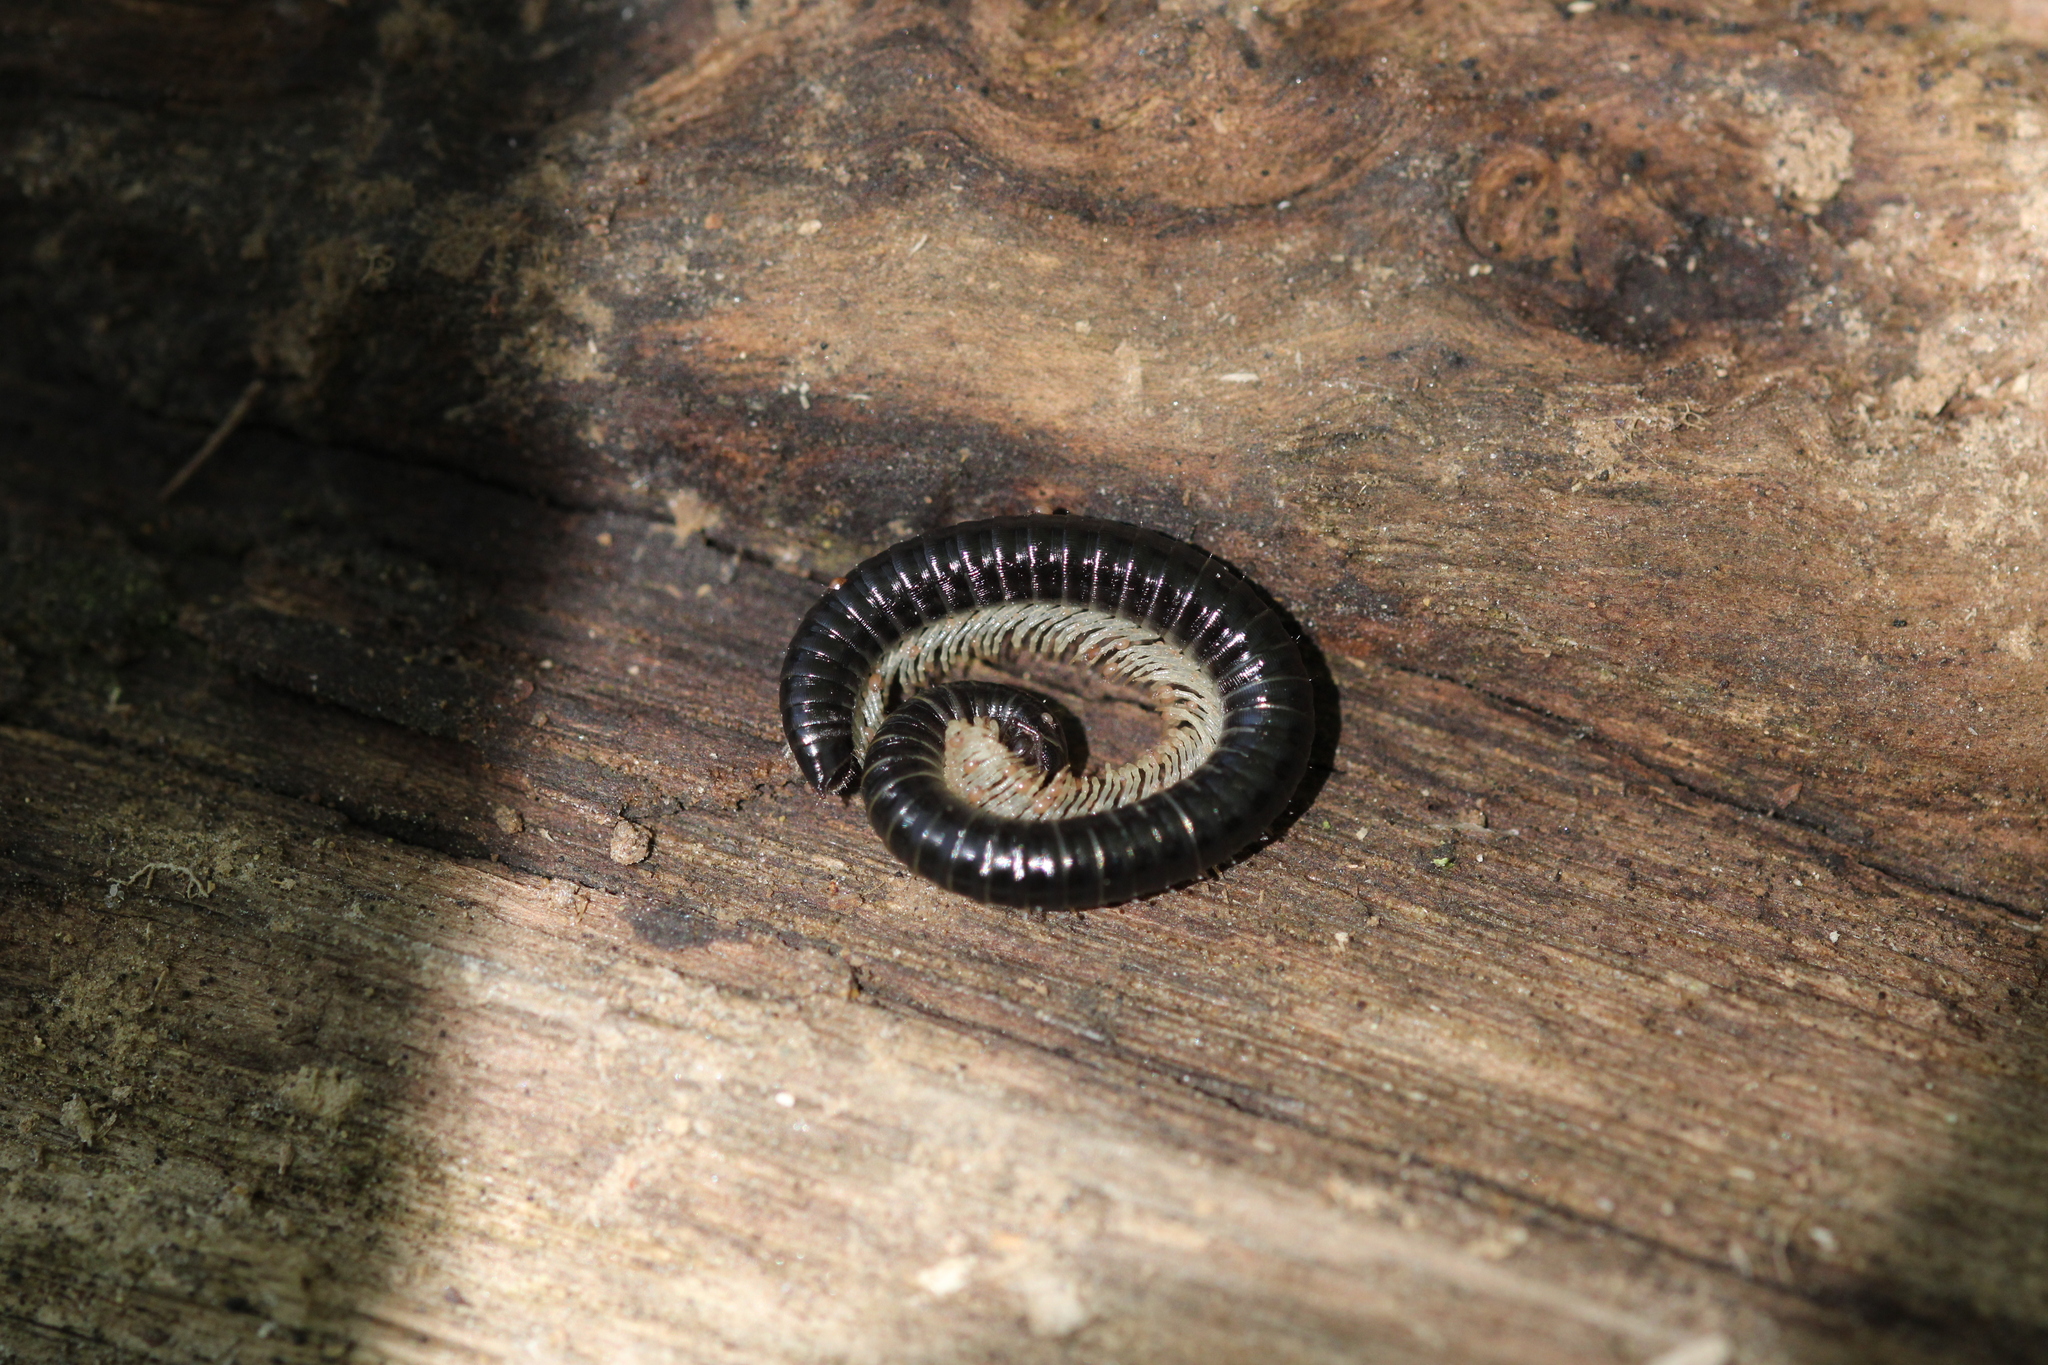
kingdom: Animalia
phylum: Arthropoda
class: Diplopoda
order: Julida
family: Julidae
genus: Tachypodoiulus
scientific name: Tachypodoiulus niger
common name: White-legged snake millipede
